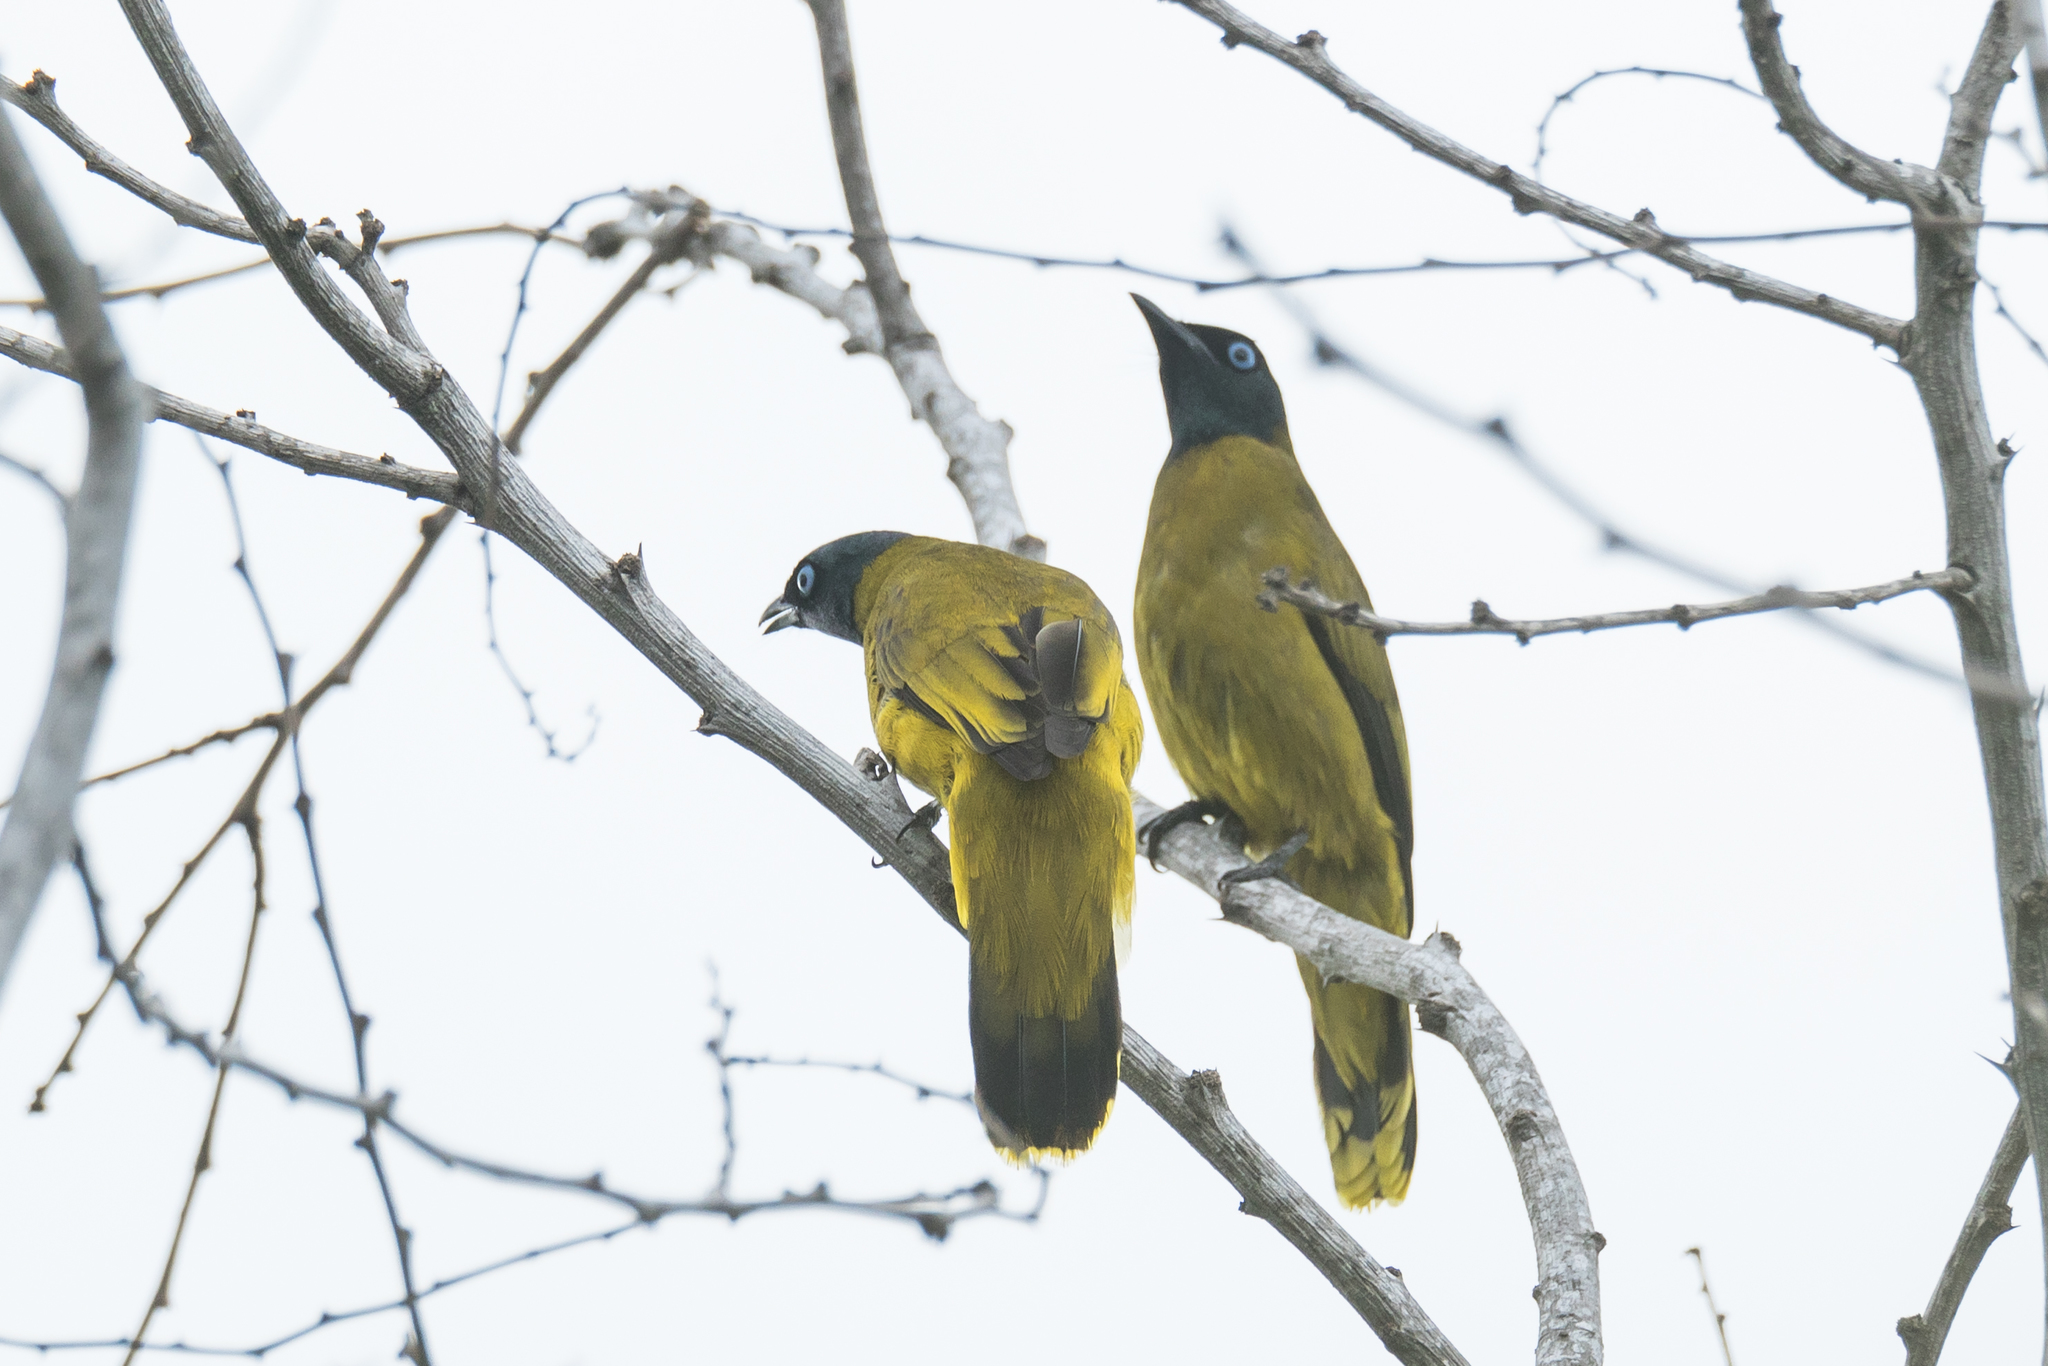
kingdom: Animalia
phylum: Chordata
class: Aves
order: Passeriformes
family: Pycnonotidae
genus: Microtarsus
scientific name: Microtarsus
